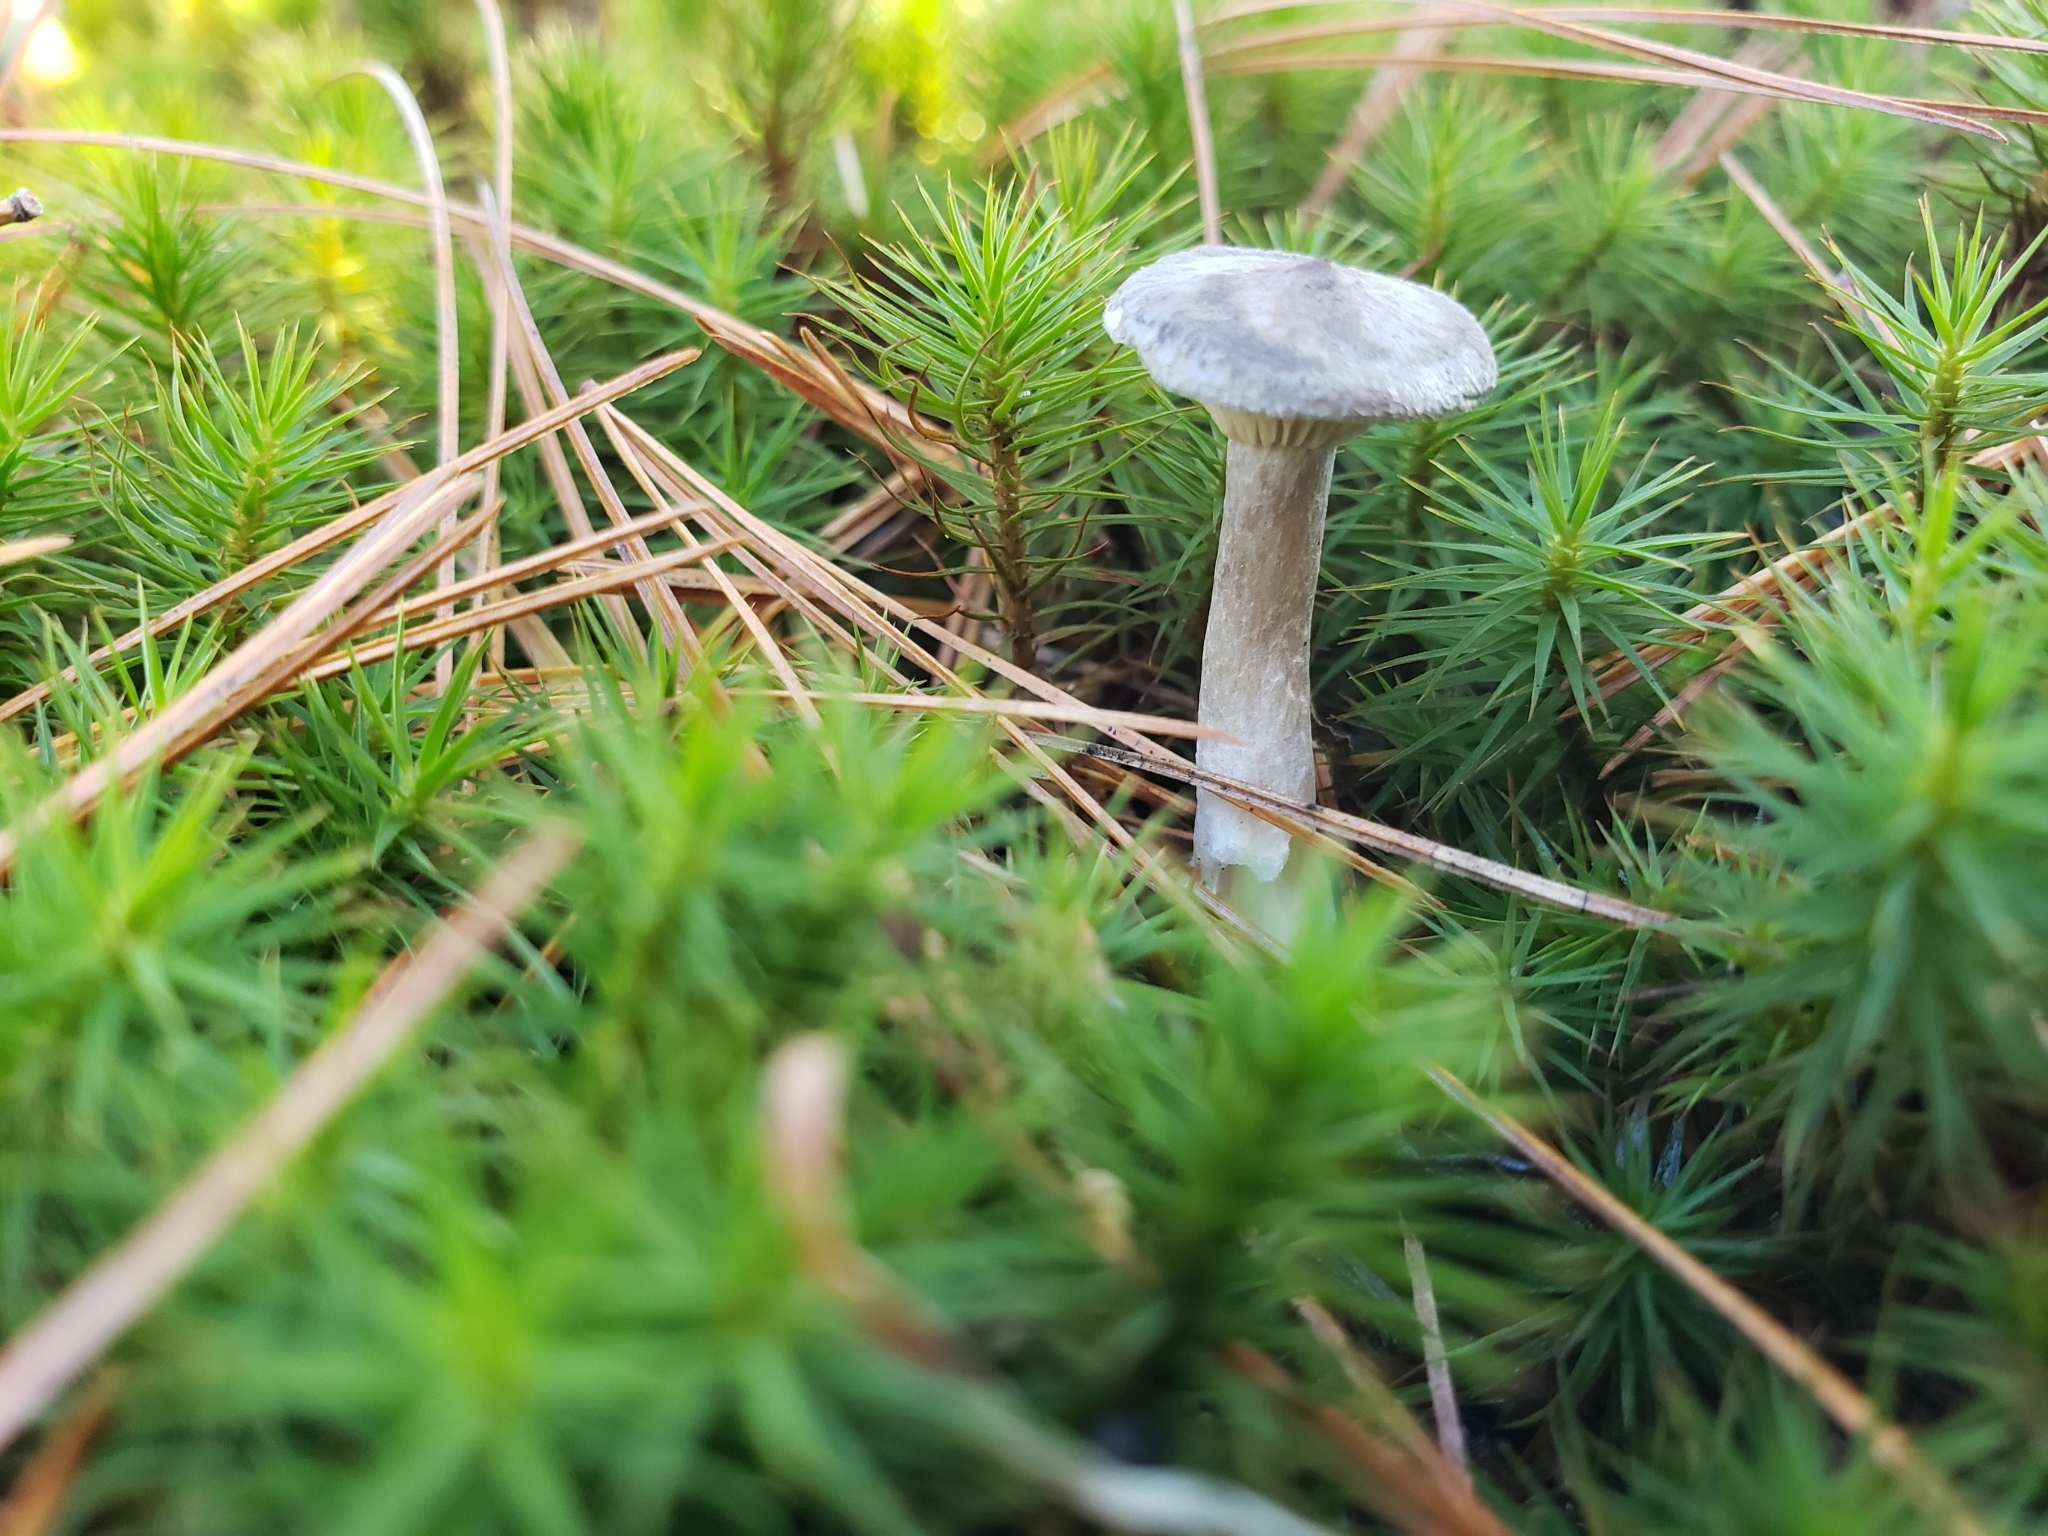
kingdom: Fungi
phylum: Basidiomycota
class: Agaricomycetes
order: Agaricales
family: Hygrophoraceae
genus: Cantharellula
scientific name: Cantharellula umbonata
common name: The humpback
